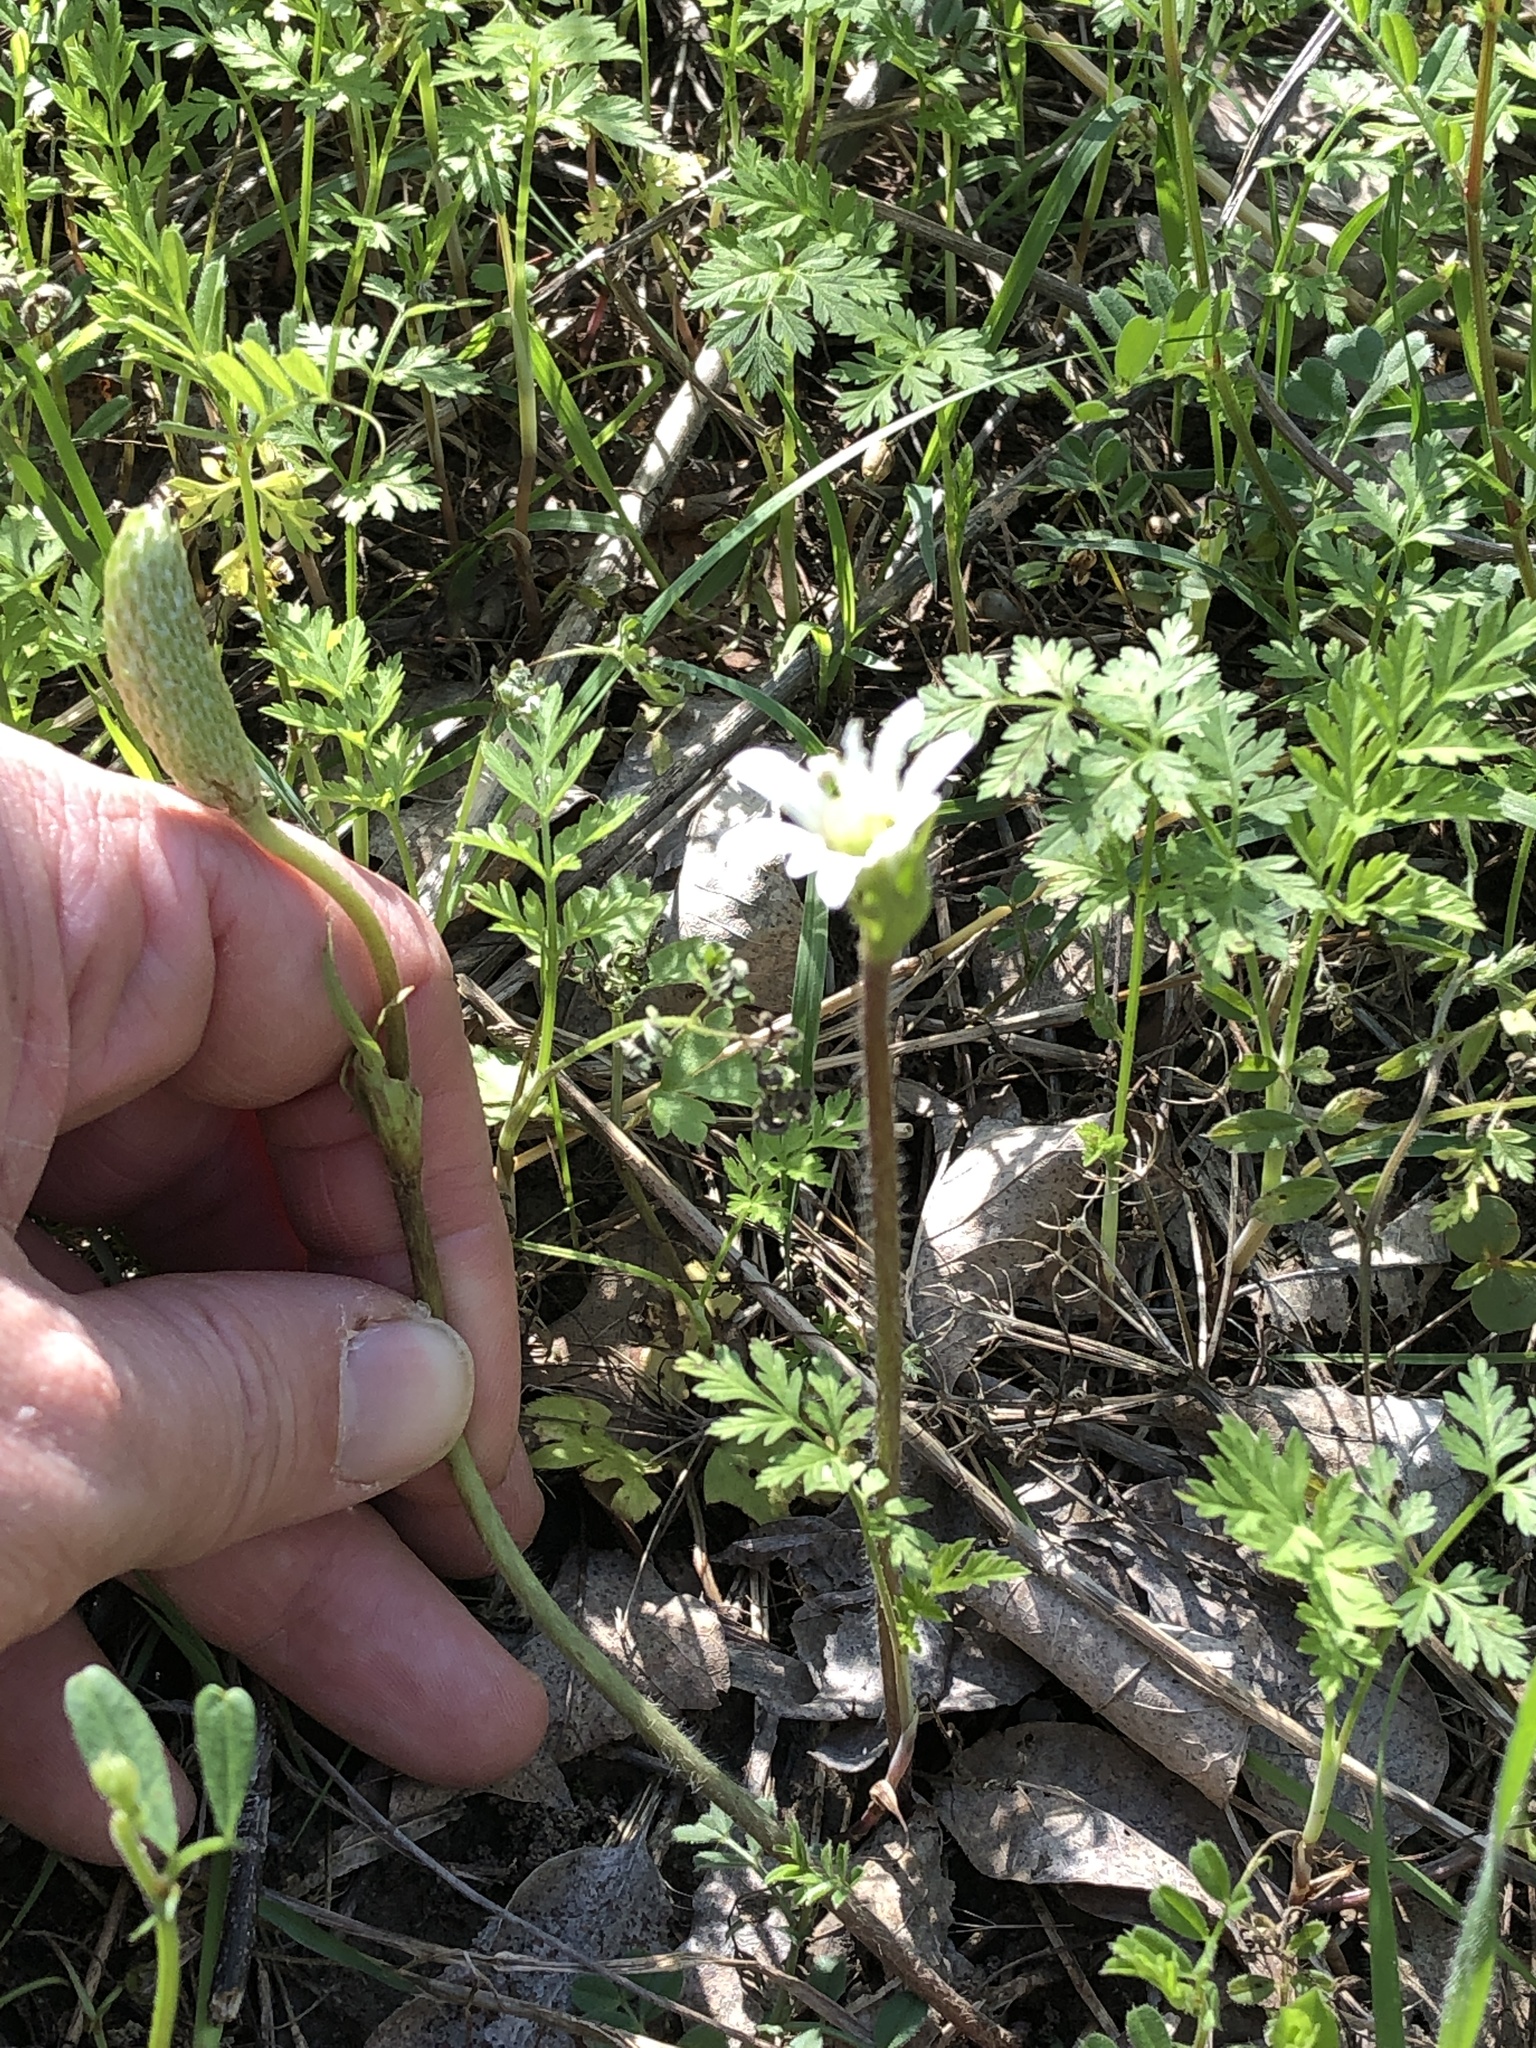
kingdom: Plantae
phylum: Tracheophyta
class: Magnoliopsida
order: Ranunculales
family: Ranunculaceae
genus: Anemone
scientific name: Anemone berlandieri
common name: Ten-petal anemone
